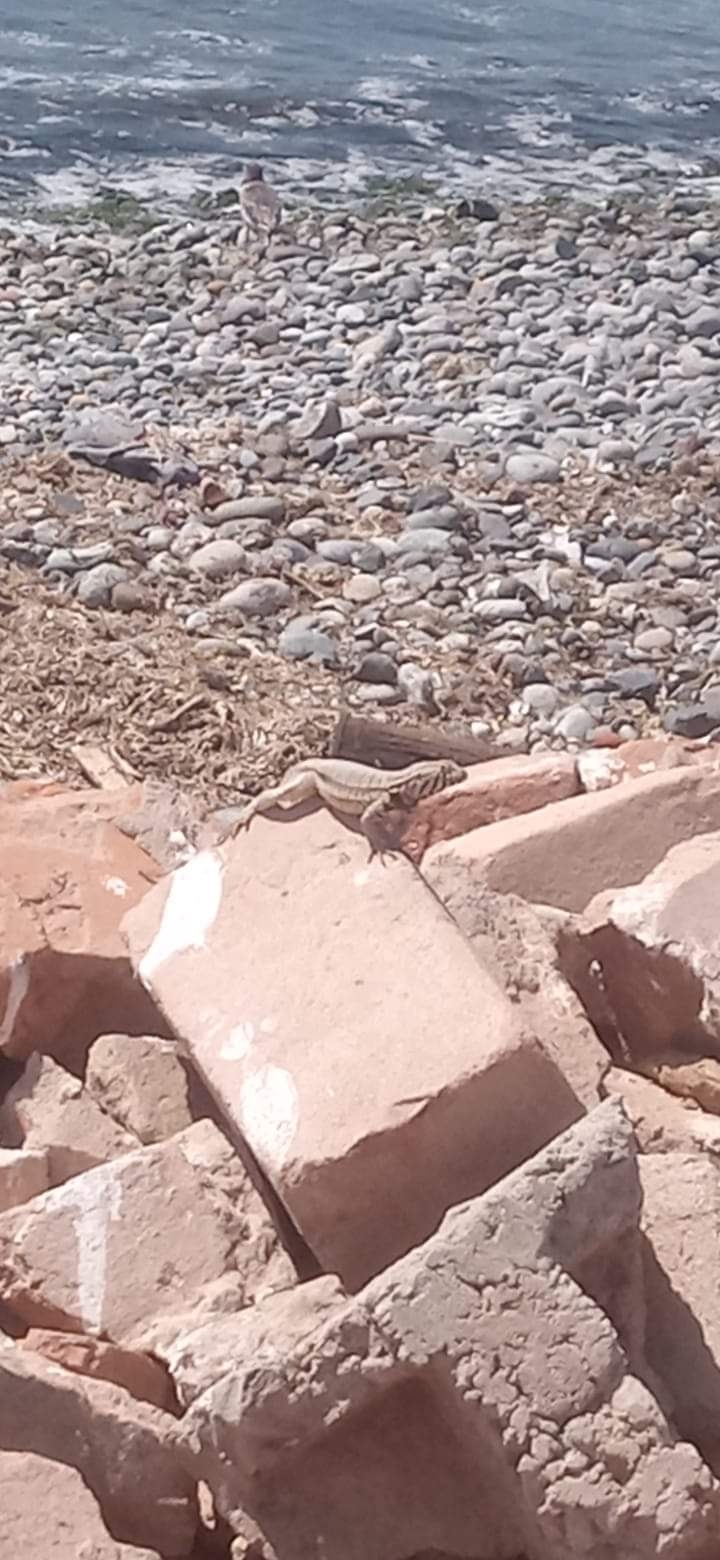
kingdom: Animalia
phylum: Chordata
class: Squamata
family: Tropiduridae
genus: Microlophus
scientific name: Microlophus peruvianus
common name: Peru pacific iguana
